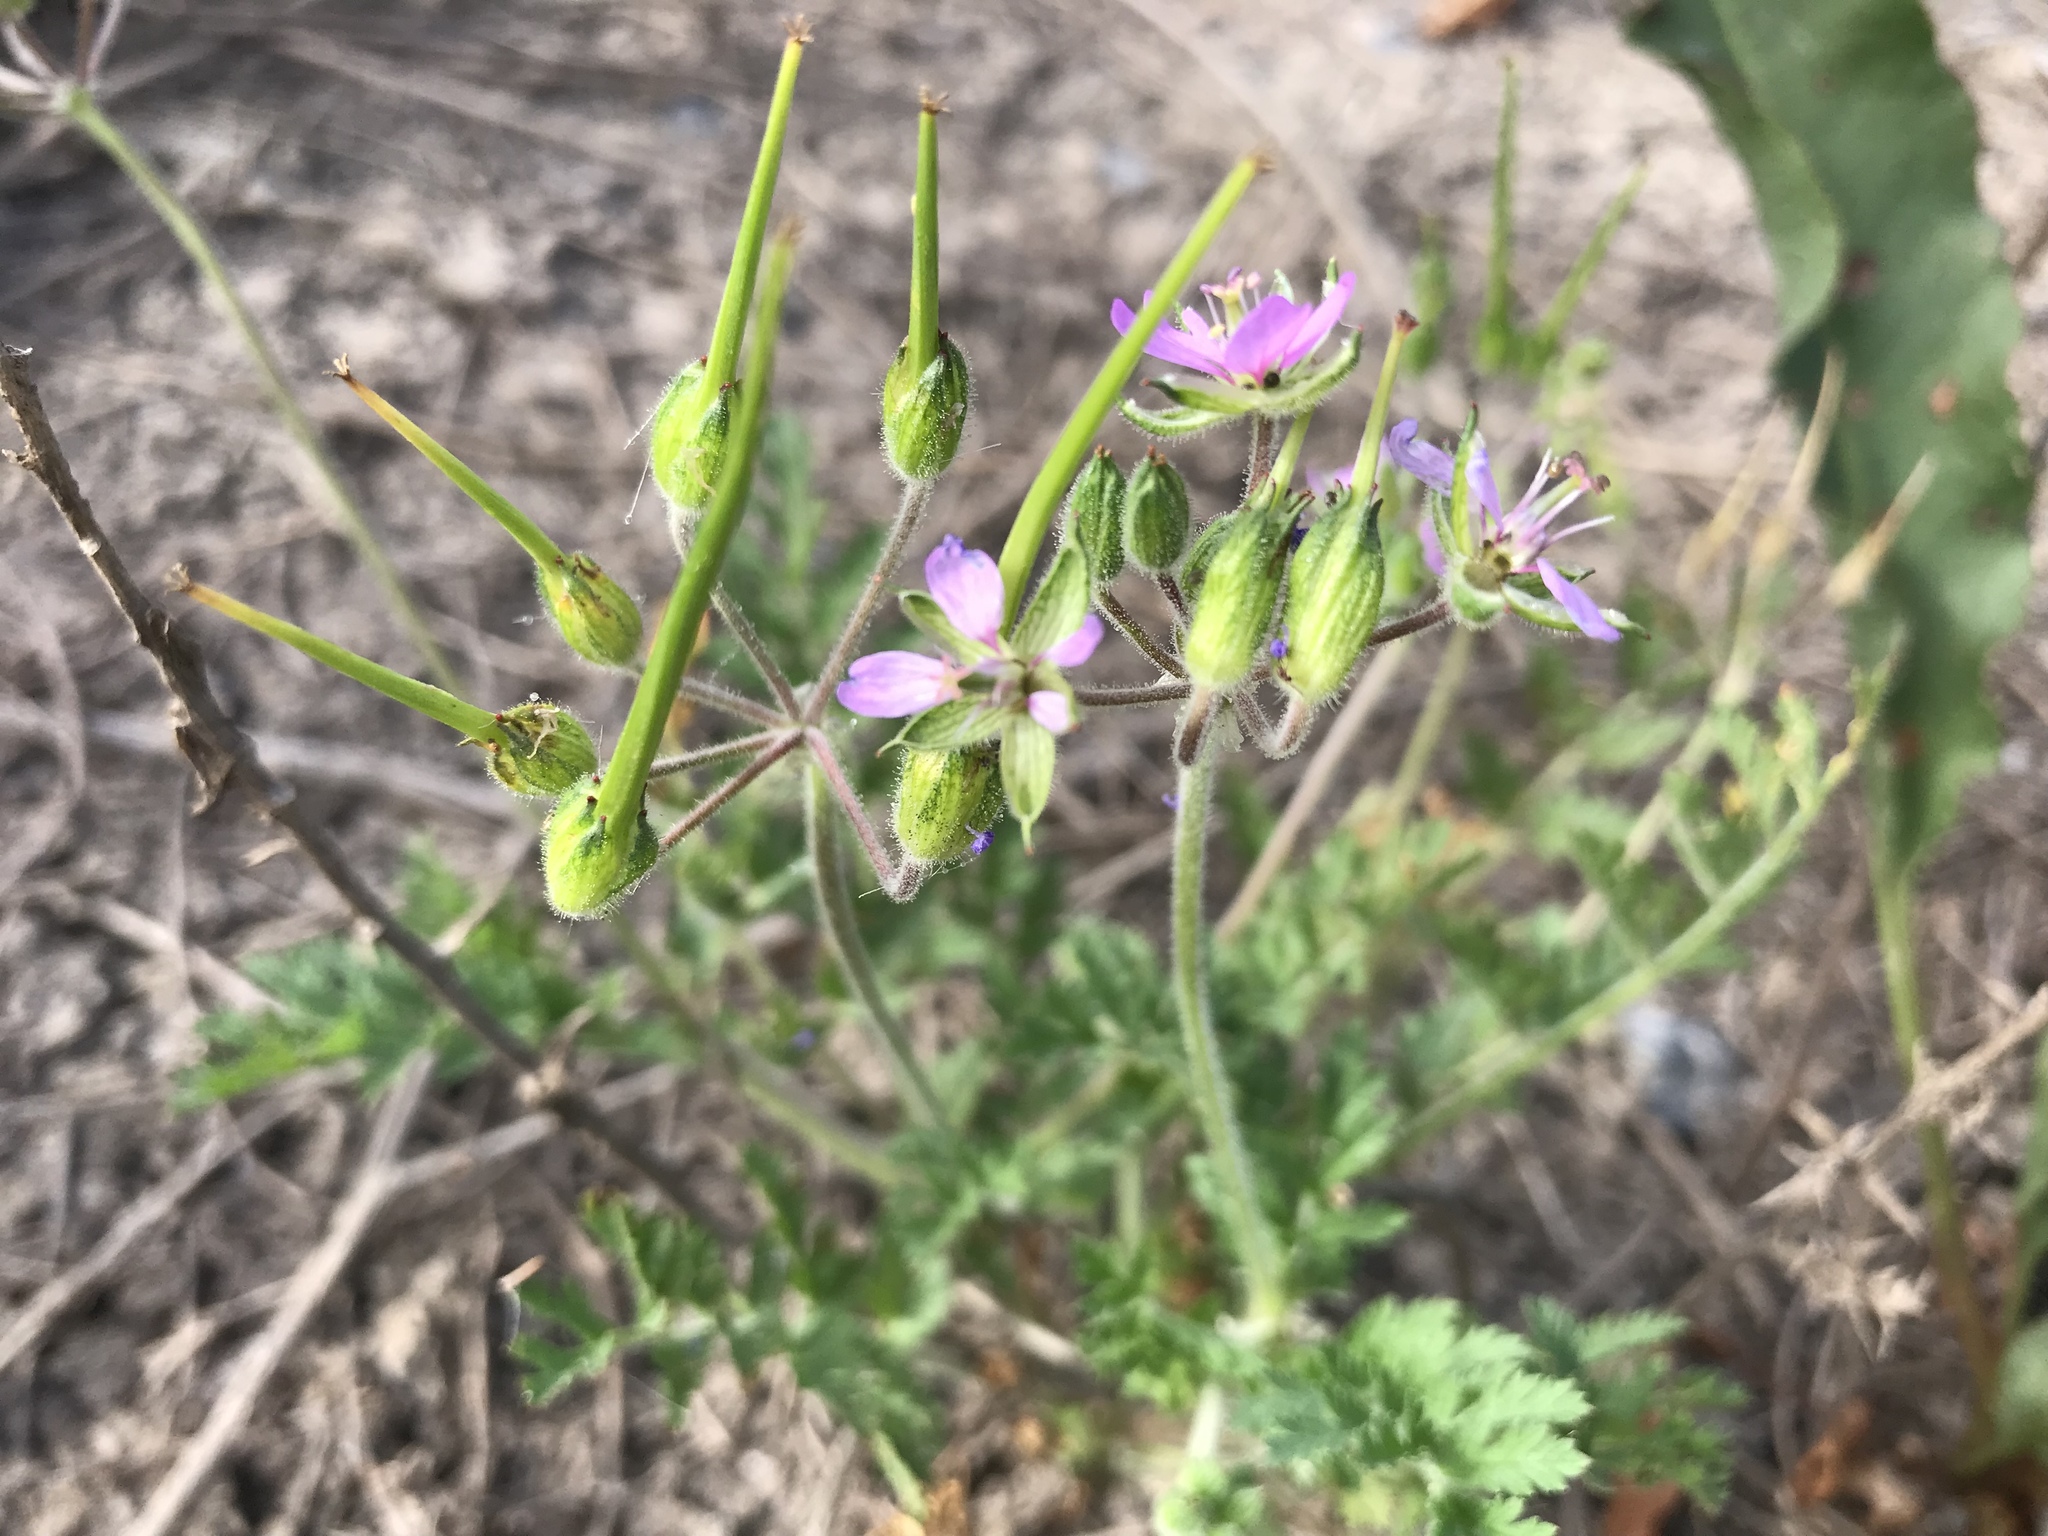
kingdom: Plantae
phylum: Tracheophyta
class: Magnoliopsida
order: Geraniales
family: Geraniaceae
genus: Erodium
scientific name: Erodium moschatum
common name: Musk stork's-bill
